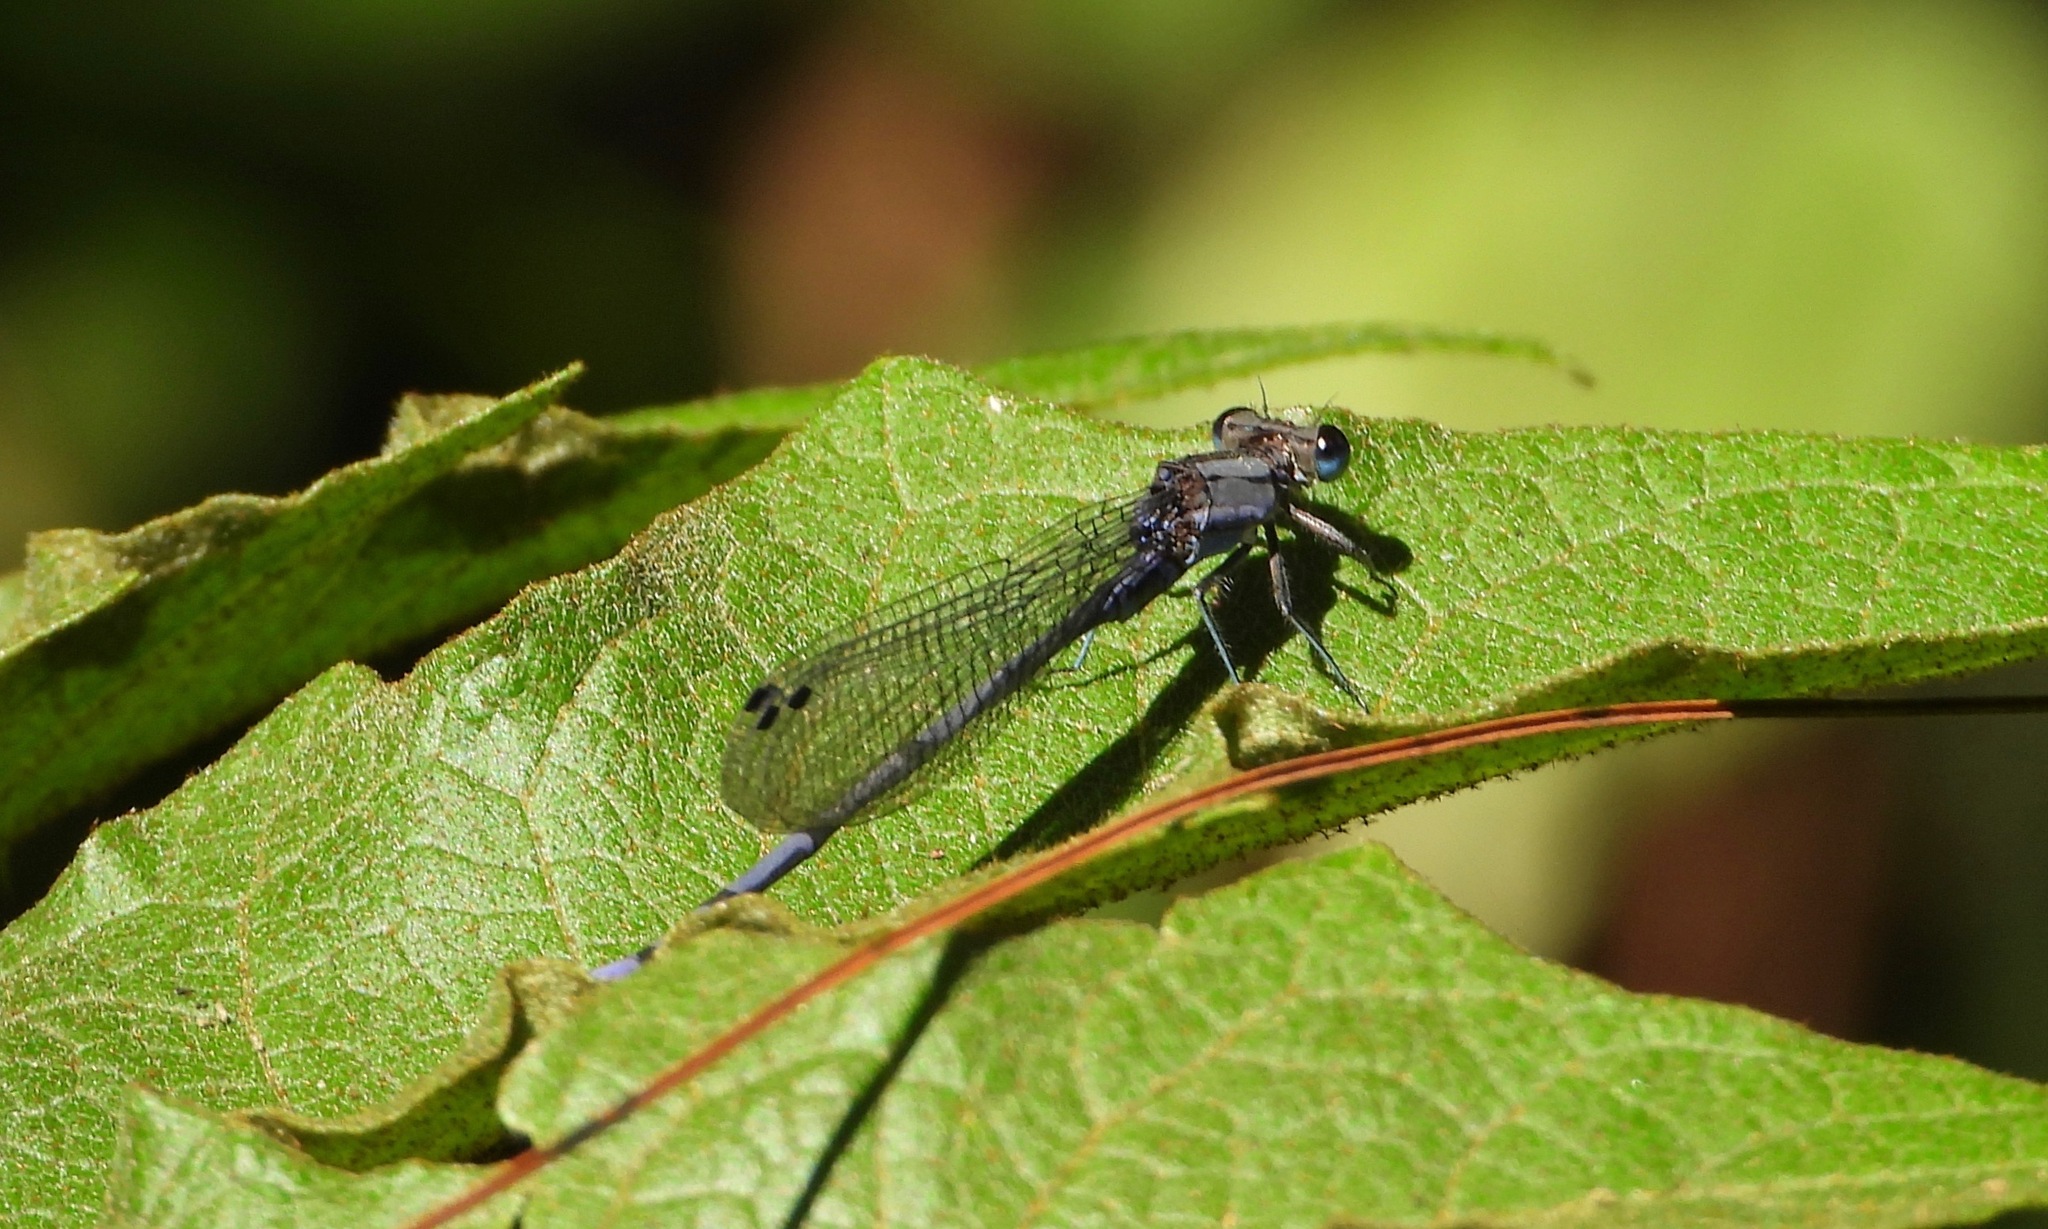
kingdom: Animalia
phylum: Arthropoda
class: Insecta
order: Odonata
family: Coenagrionidae
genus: Argia
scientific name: Argia funebris
